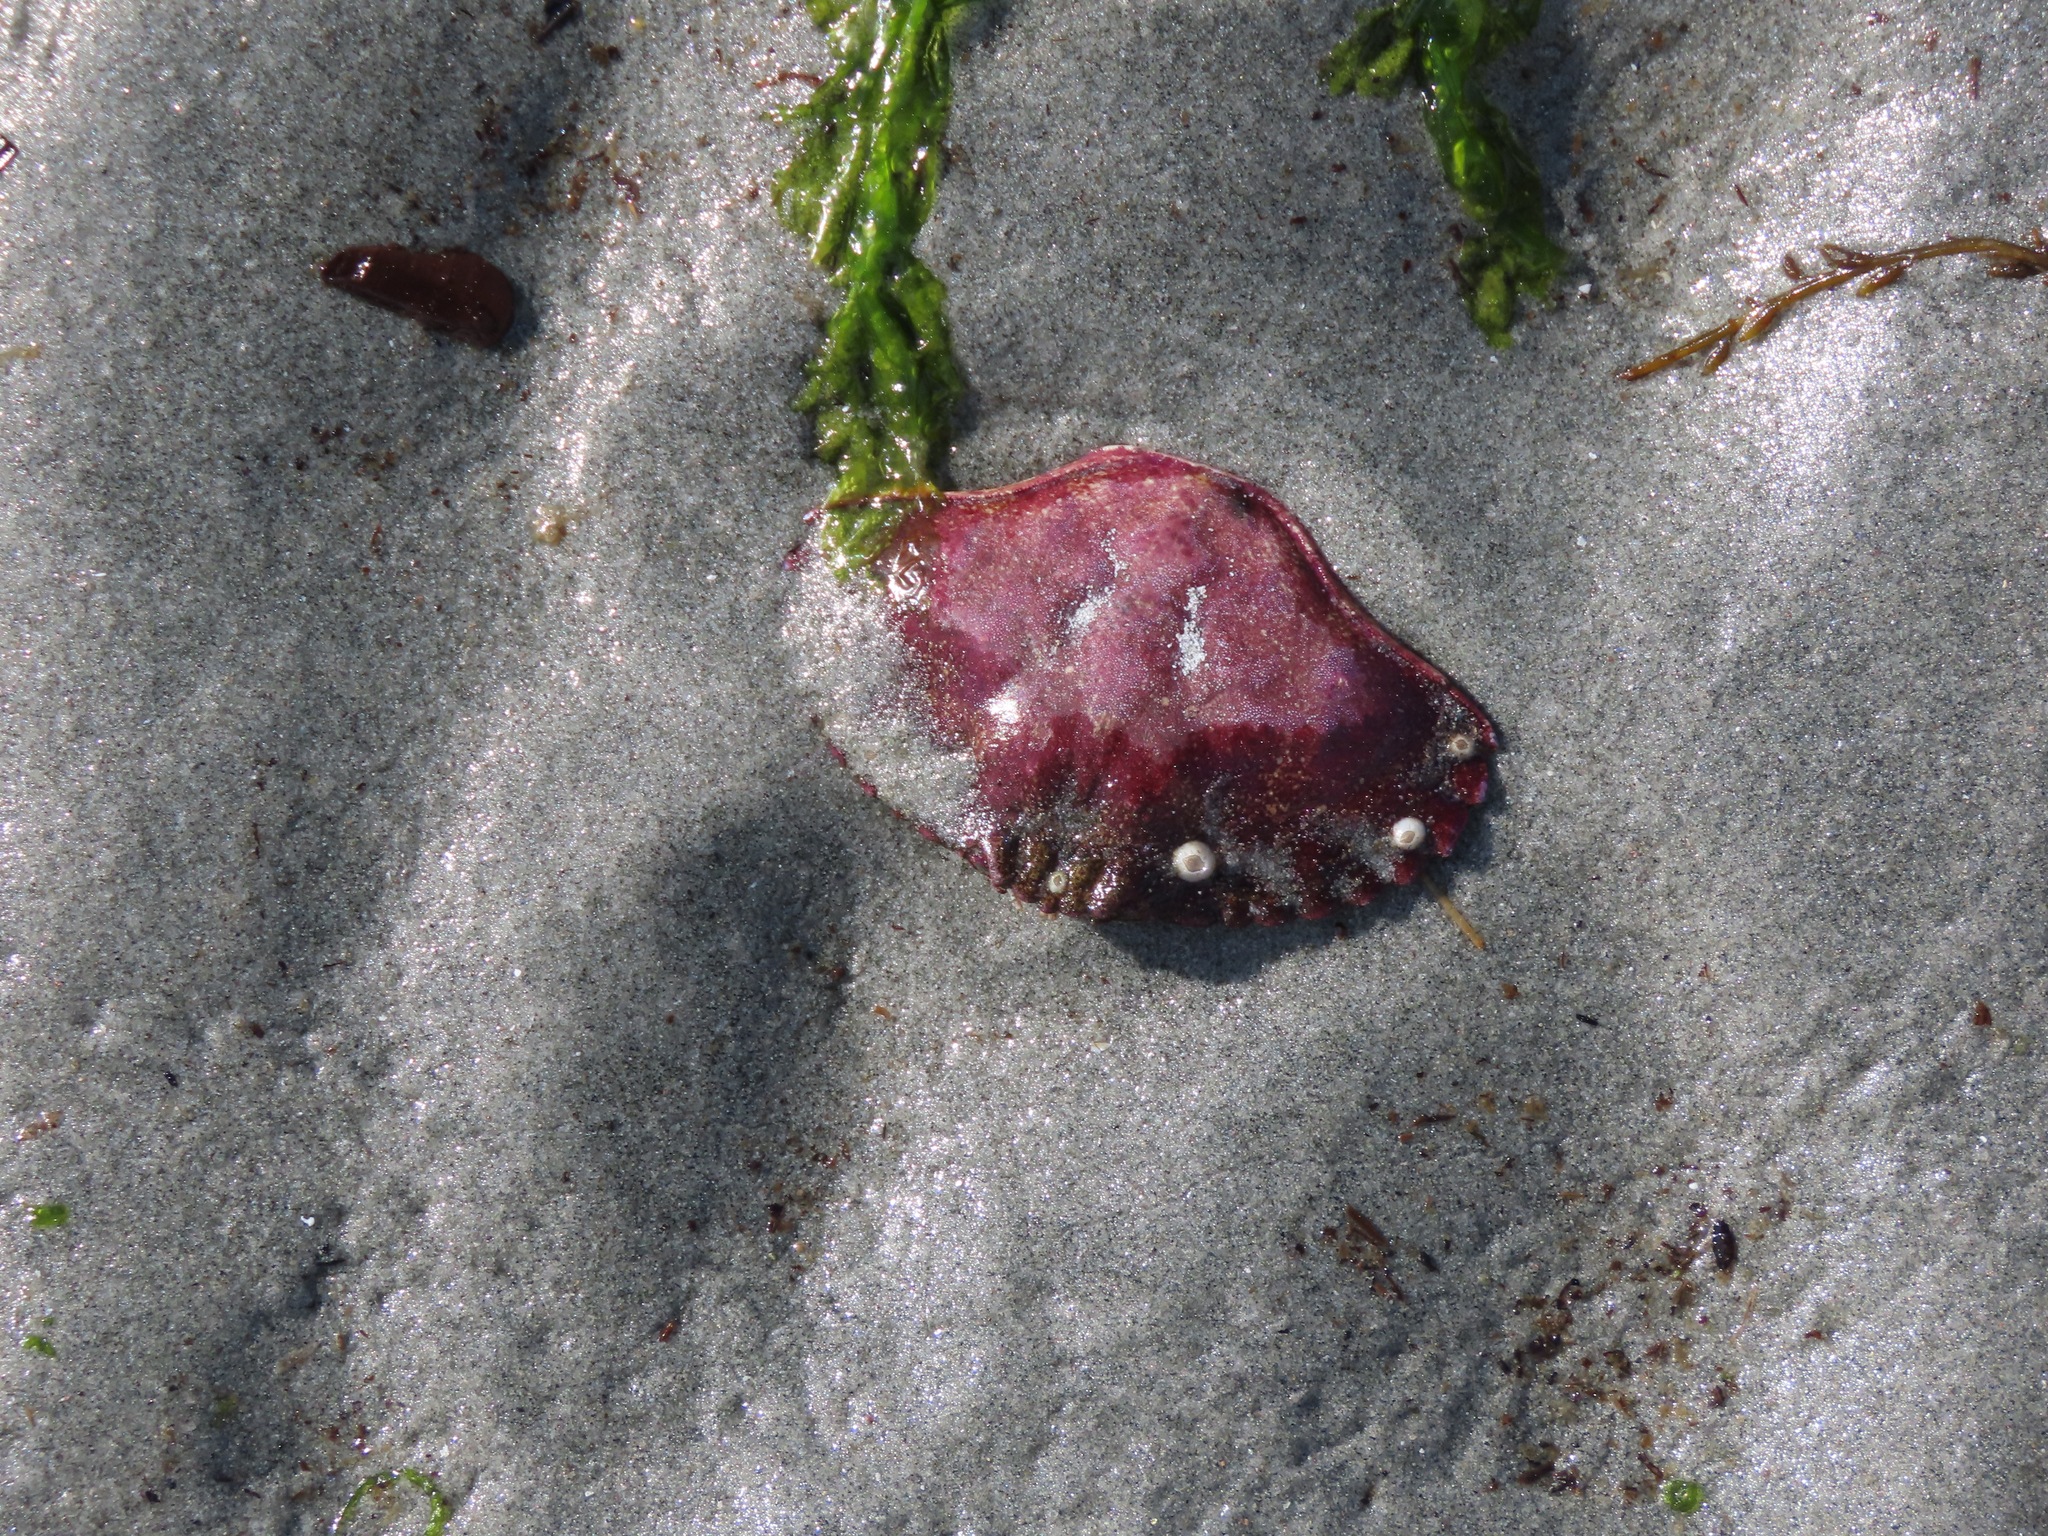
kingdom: Animalia
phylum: Arthropoda
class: Malacostraca
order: Decapoda
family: Cancridae
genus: Cancer
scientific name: Cancer productus
